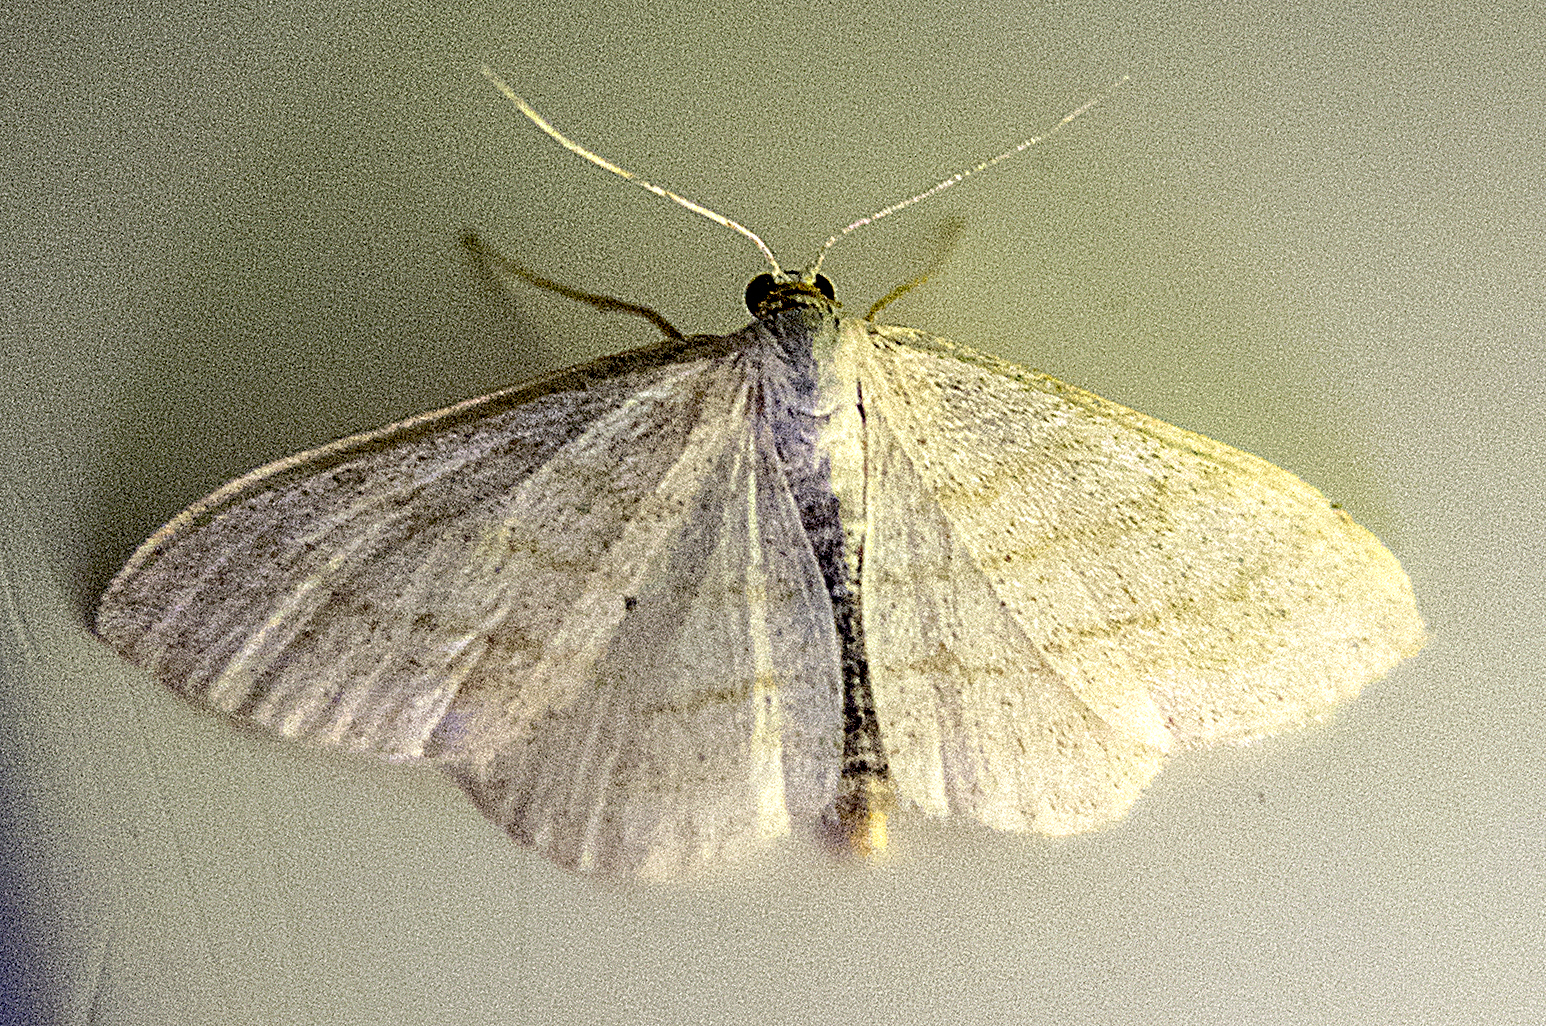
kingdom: Animalia
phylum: Arthropoda
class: Insecta
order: Lepidoptera
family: Geometridae
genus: Scopula
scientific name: Scopula subpunctaria
